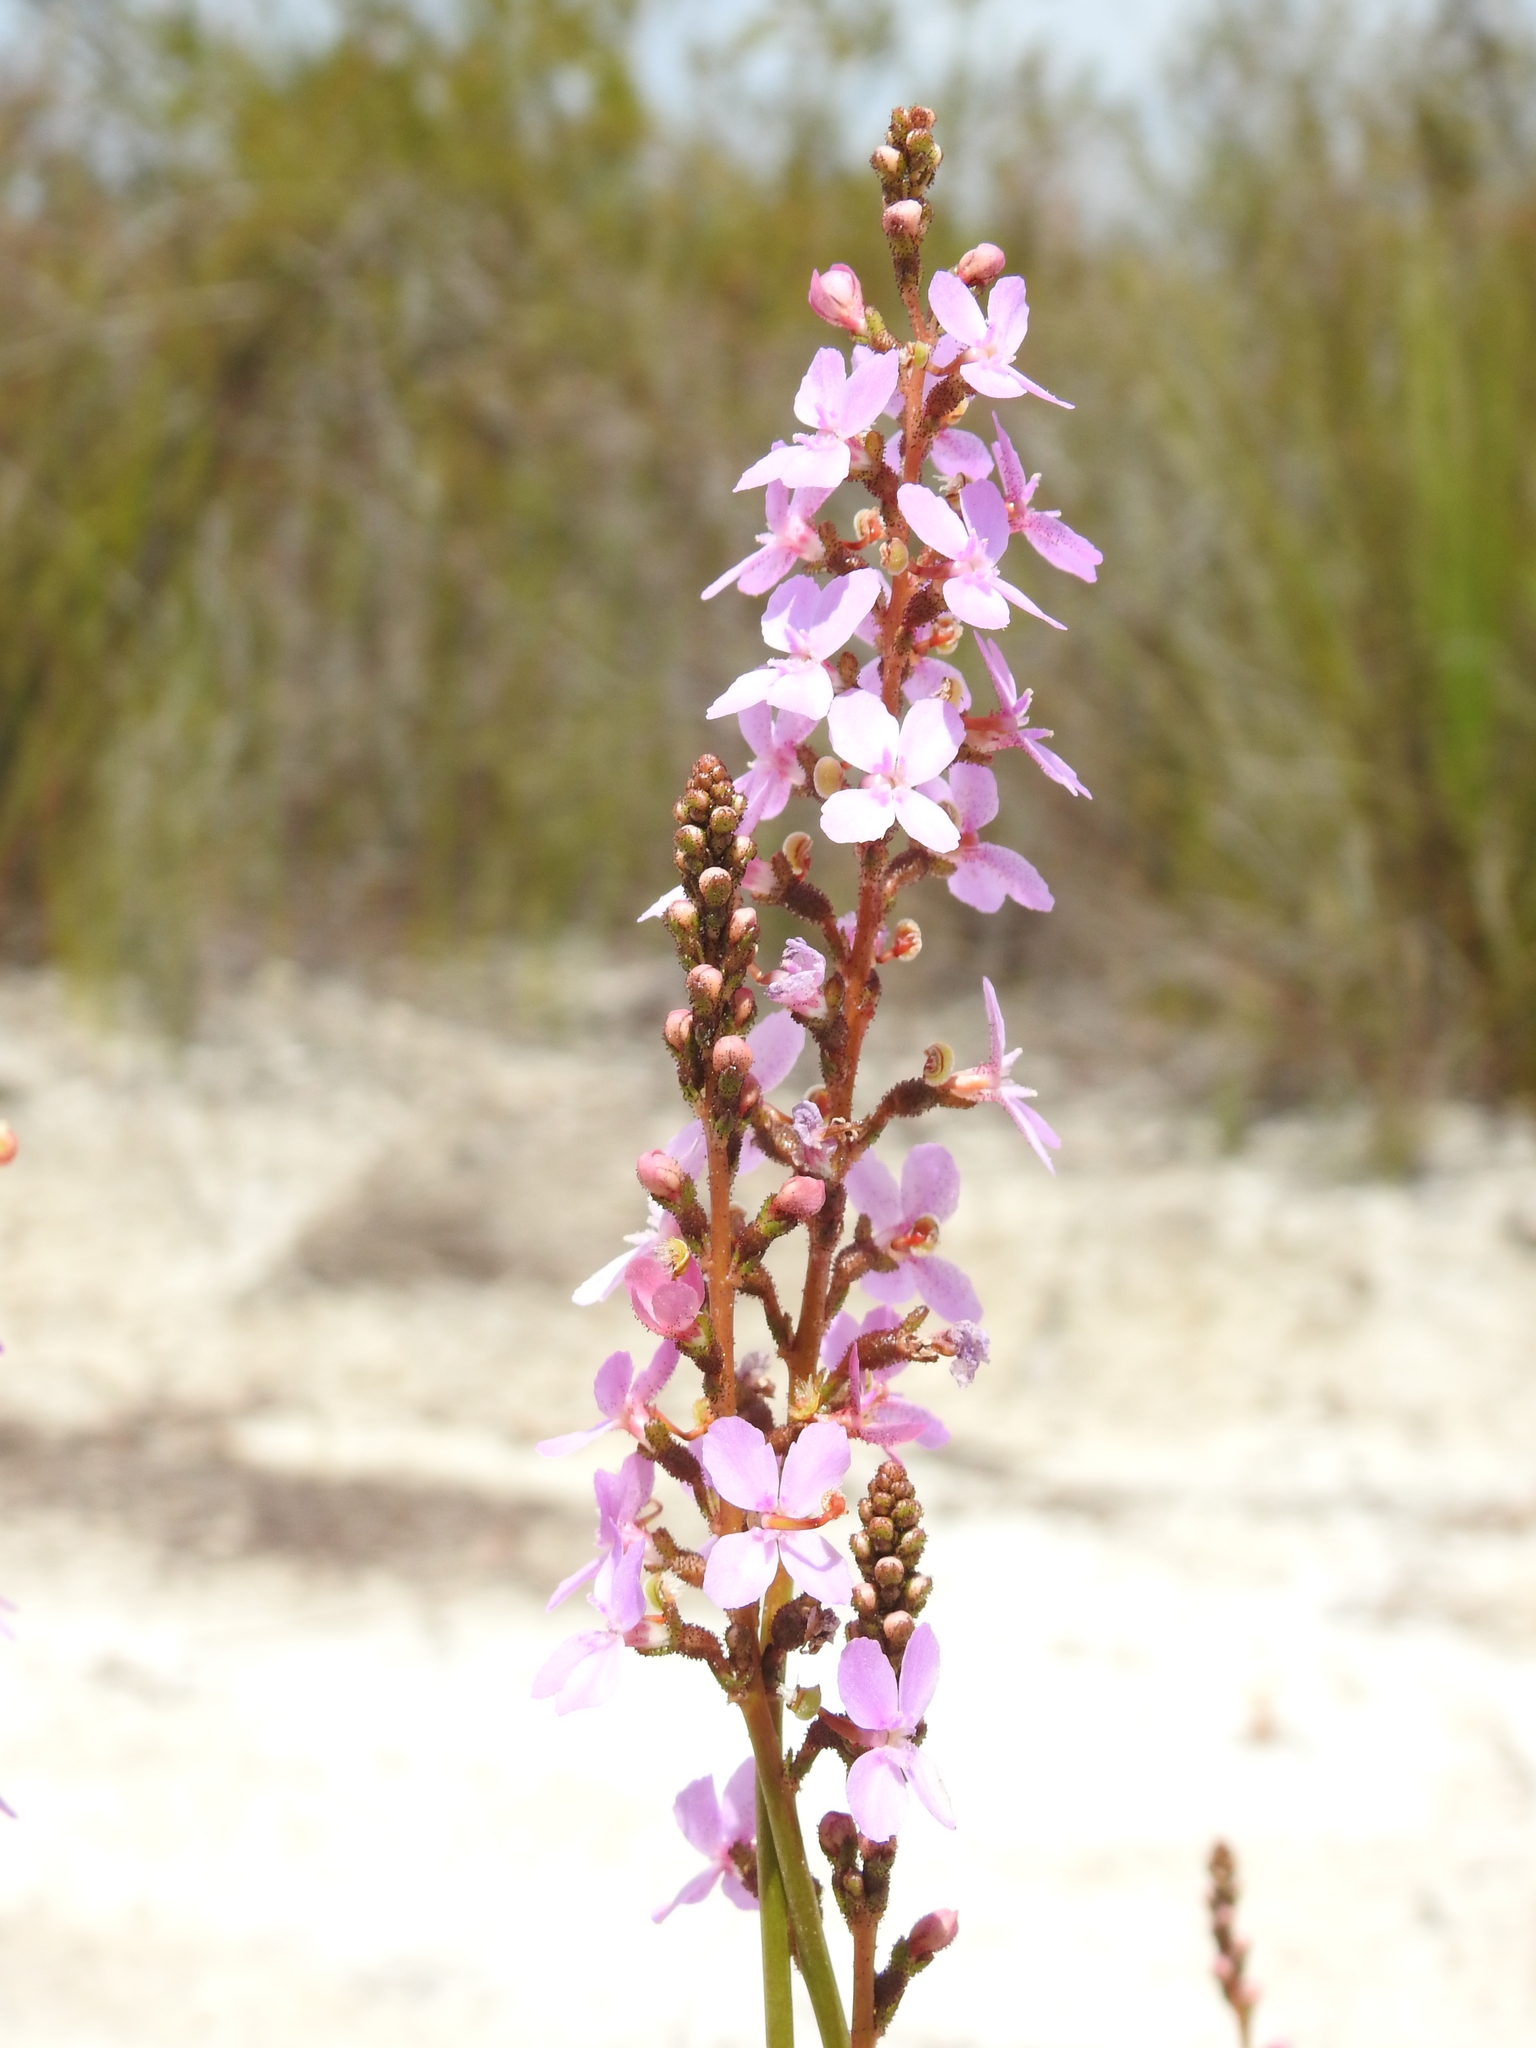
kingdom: Plantae
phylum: Tracheophyta
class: Magnoliopsida
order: Asterales
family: Stylidiaceae
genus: Stylidium
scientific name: Stylidium graminifolium
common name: Grass triggerplant
